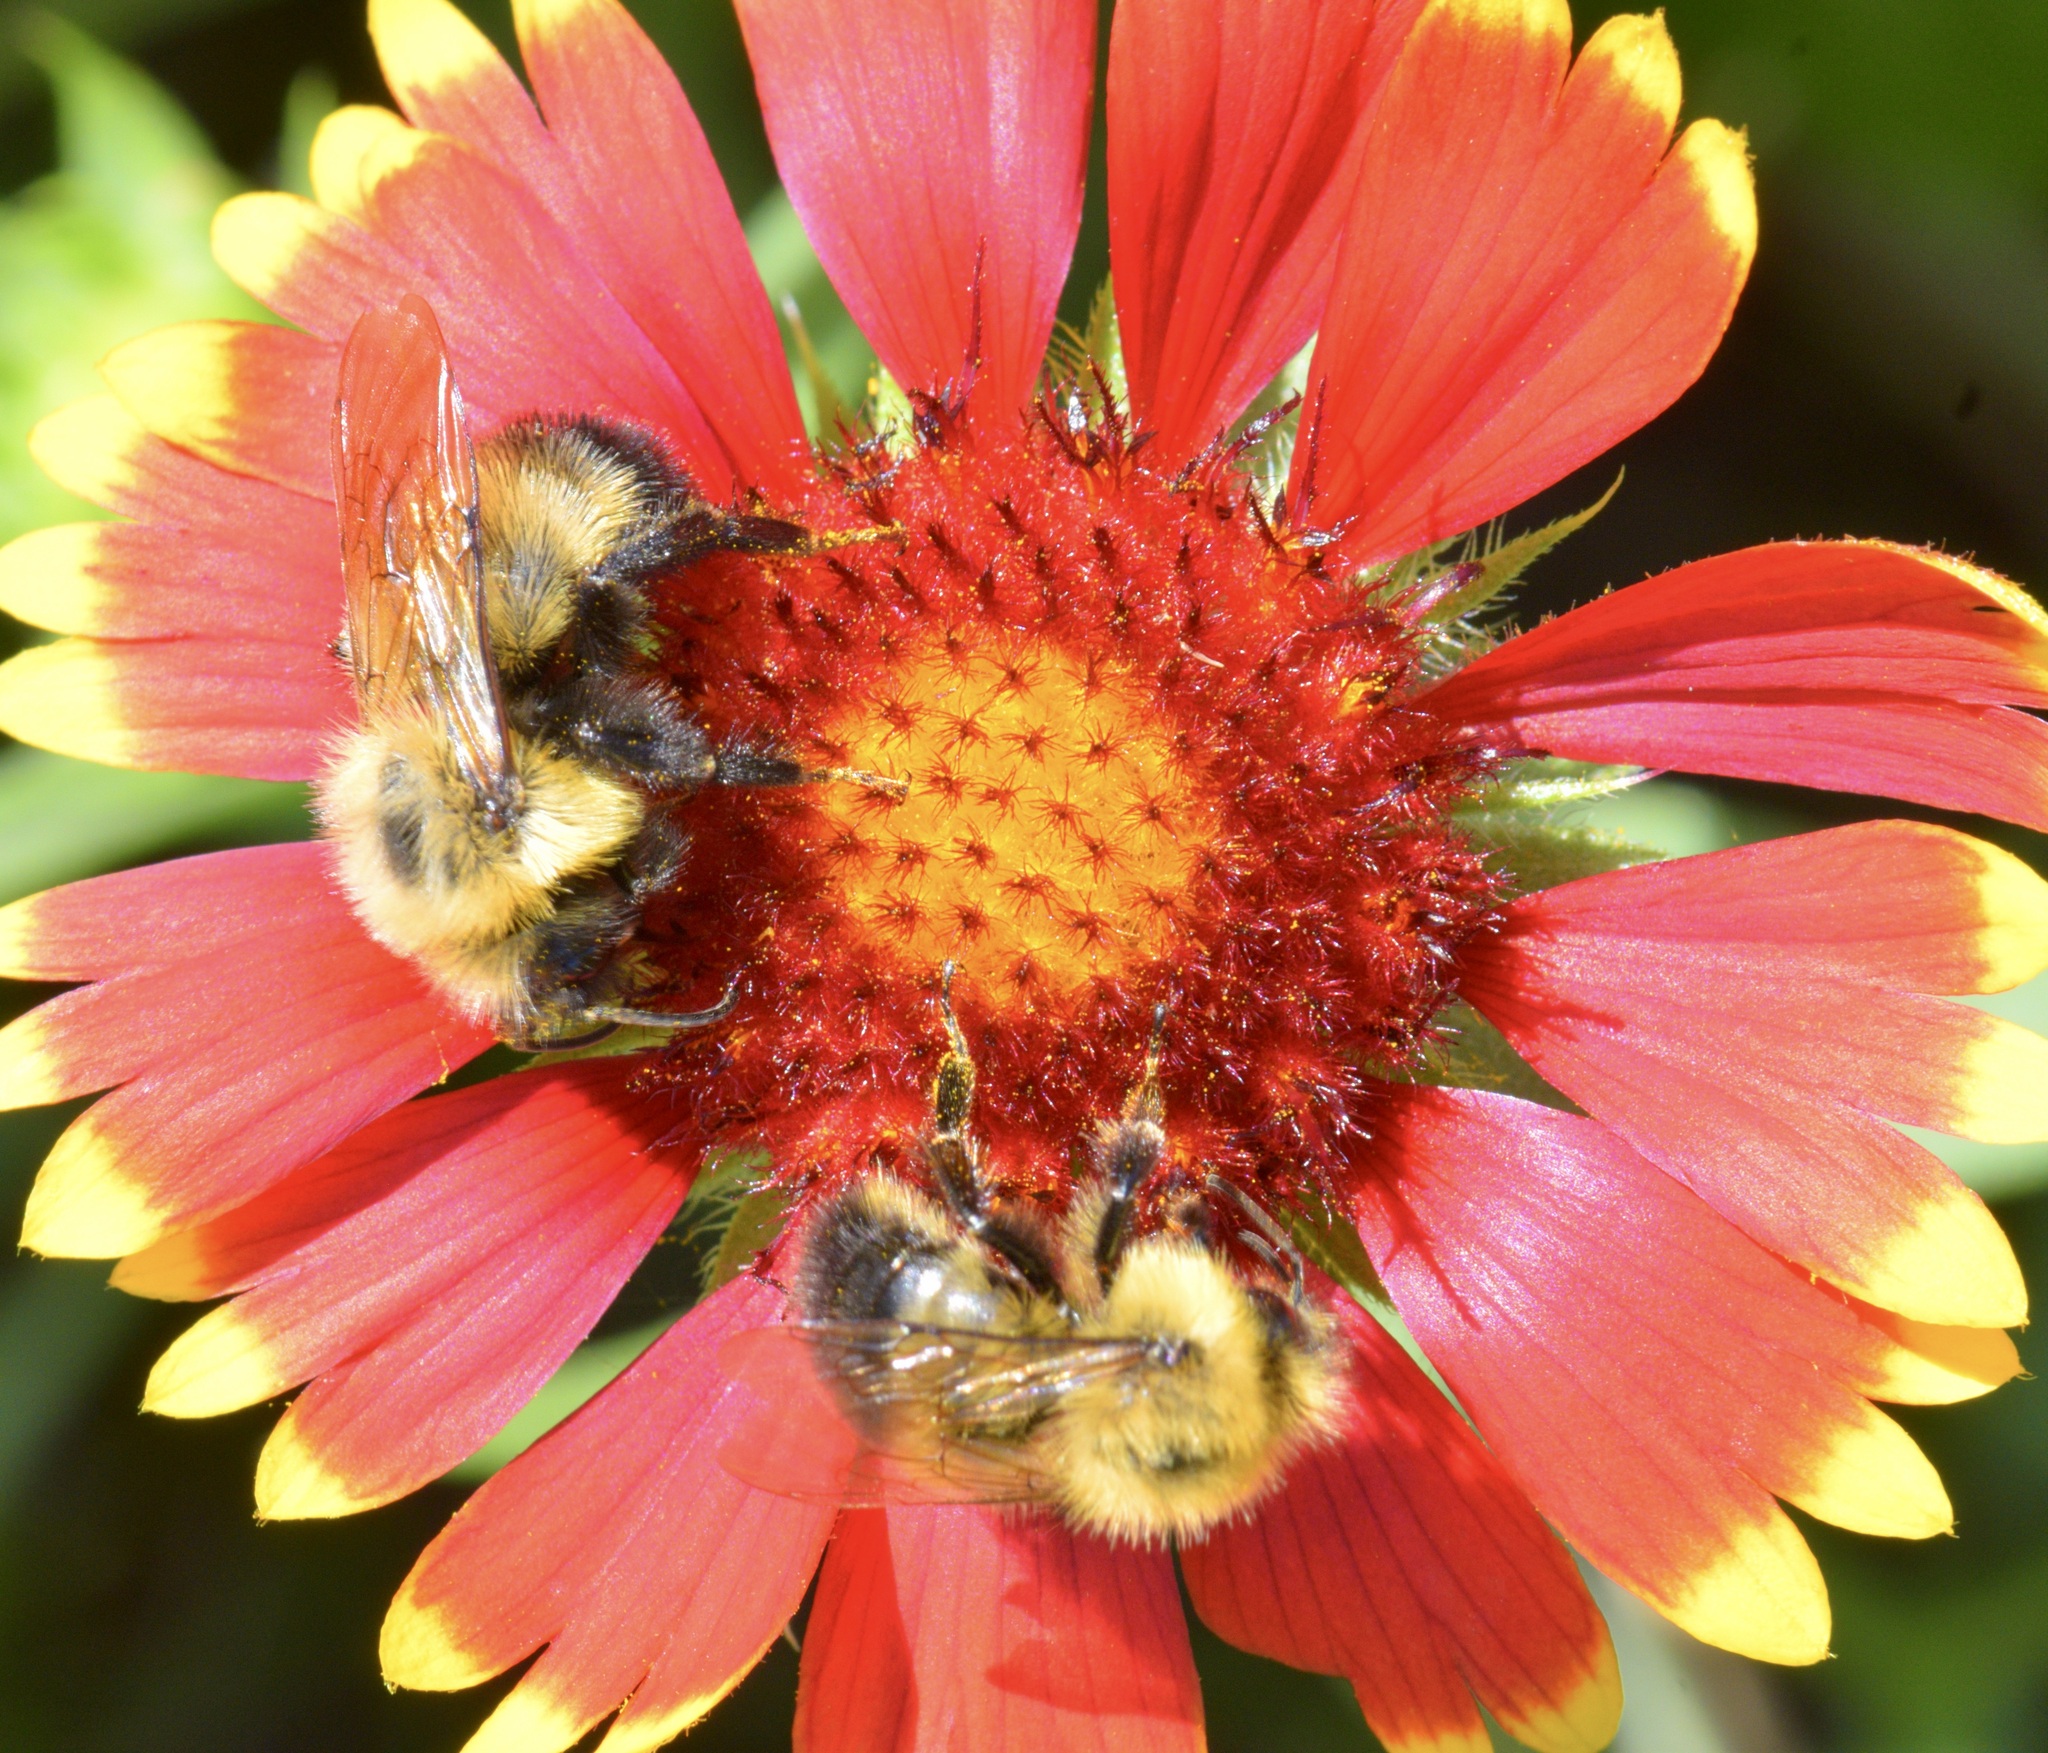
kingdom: Animalia
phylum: Arthropoda
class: Insecta
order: Hymenoptera
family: Apidae
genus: Bombus
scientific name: Bombus citrinus
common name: Lemon cuckoo bumble bee
